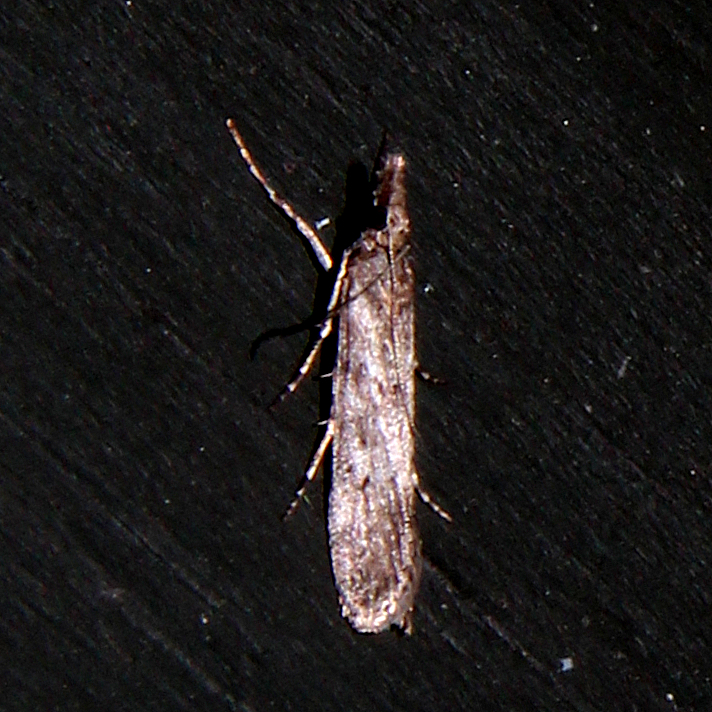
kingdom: Animalia
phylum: Arthropoda
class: Insecta
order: Lepidoptera
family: Crambidae
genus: Eudonia
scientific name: Eudonia leptalea
